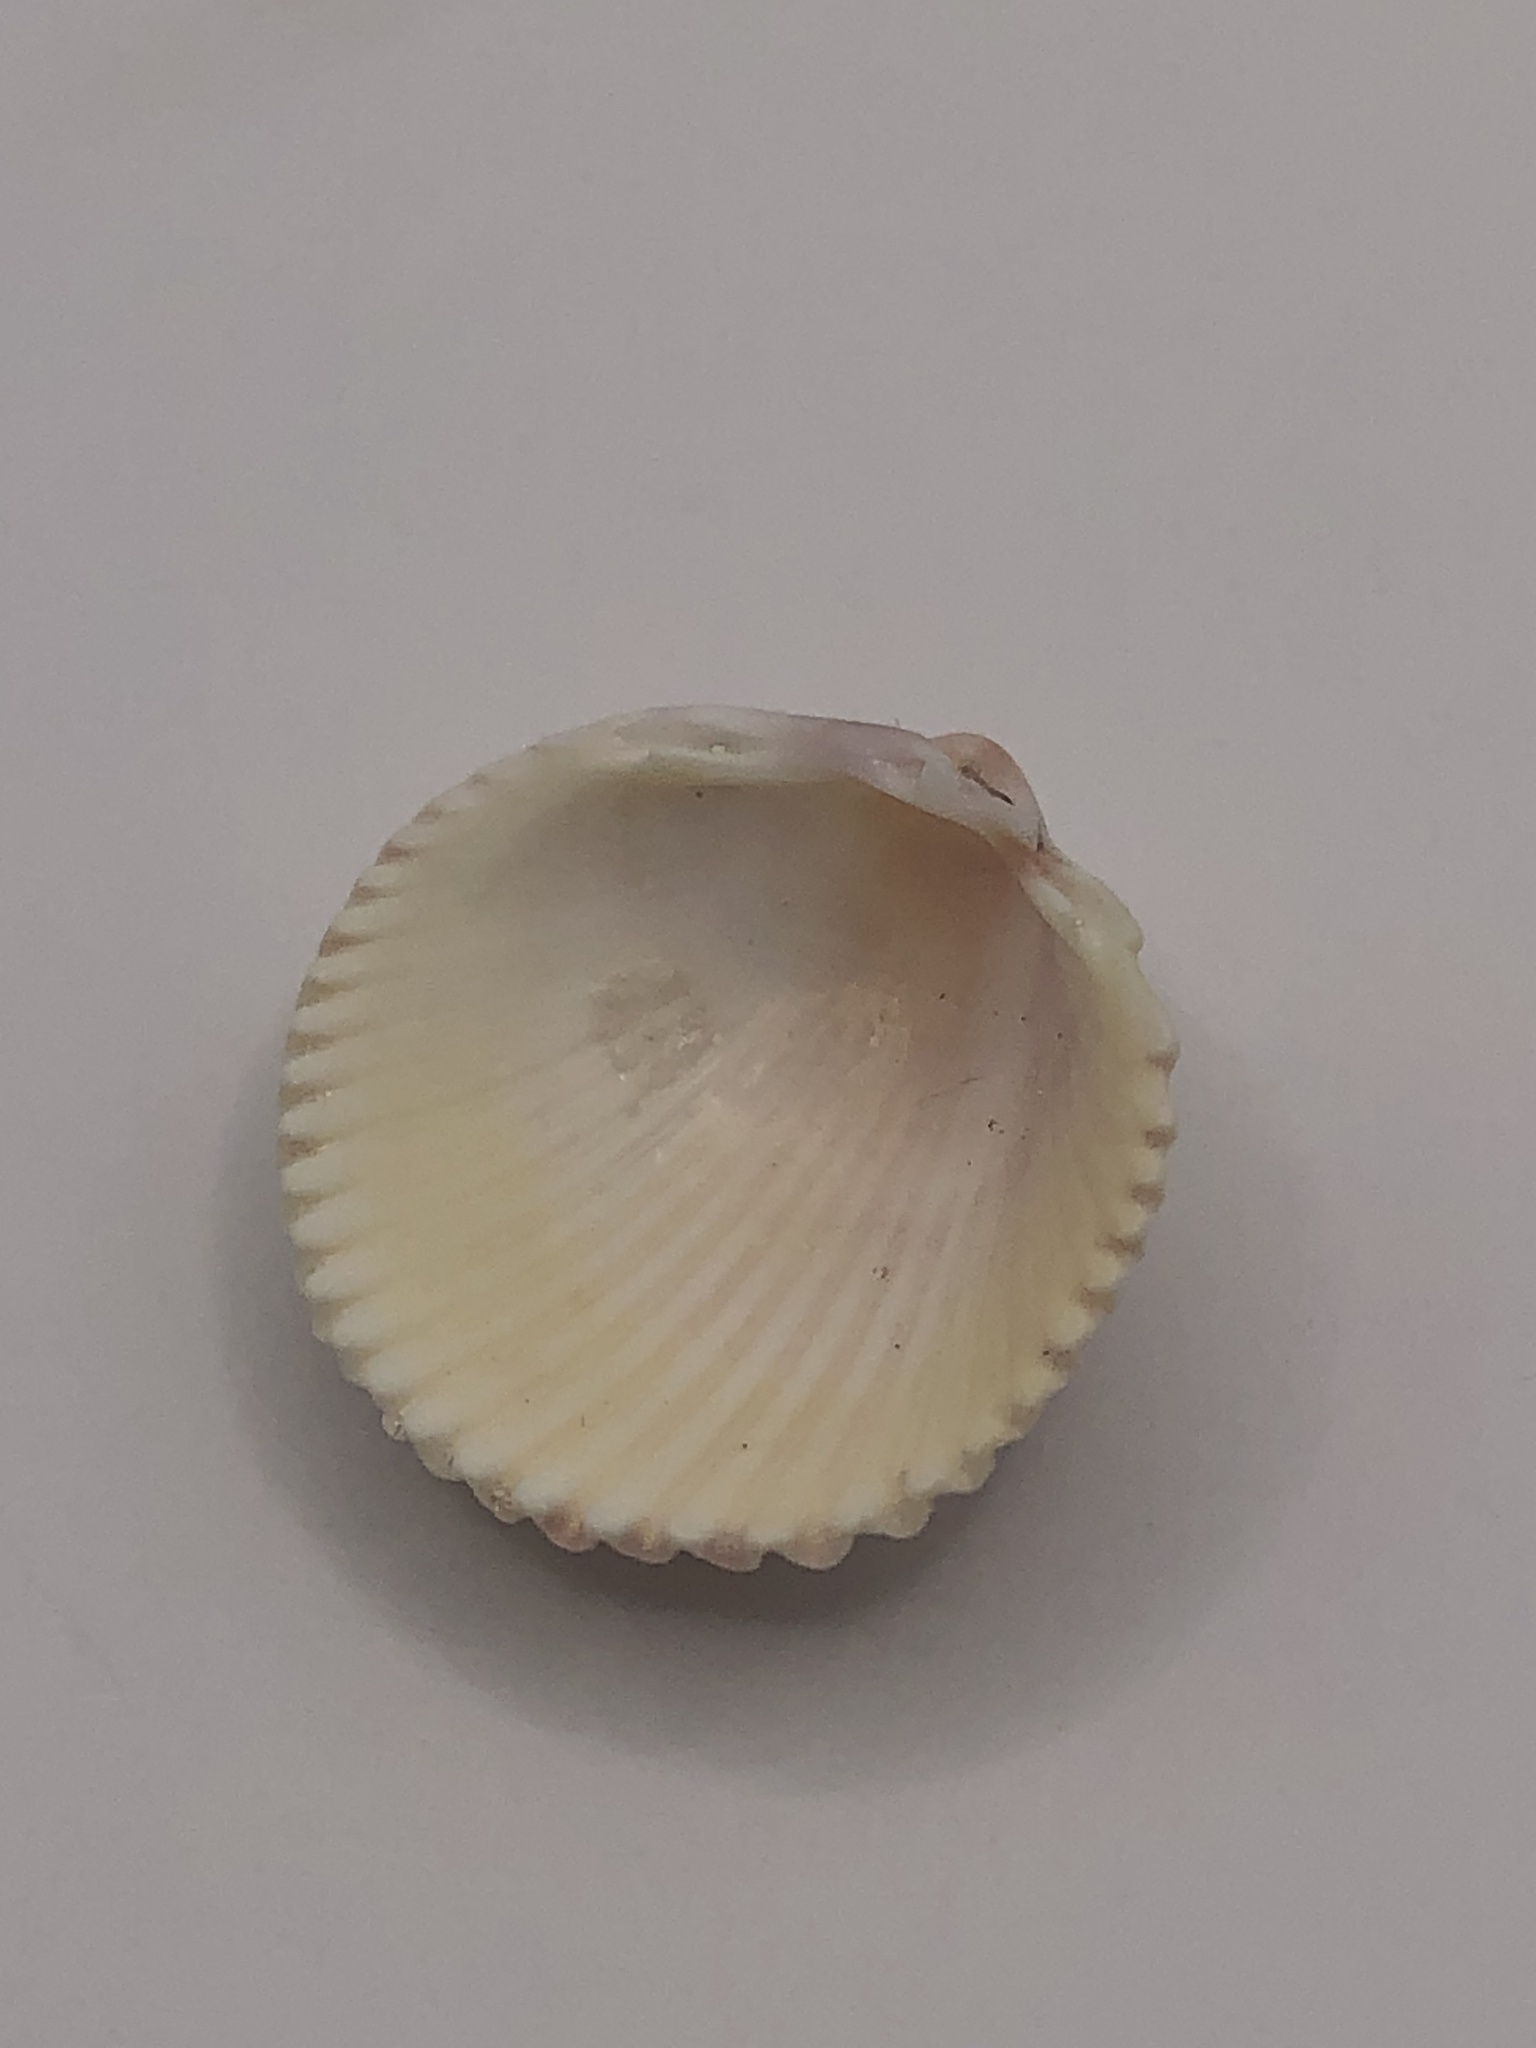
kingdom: Animalia
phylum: Mollusca
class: Bivalvia
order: Cardiida
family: Cardiidae
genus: Dallocardia
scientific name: Dallocardia muricata
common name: Yellow pricklycockle
